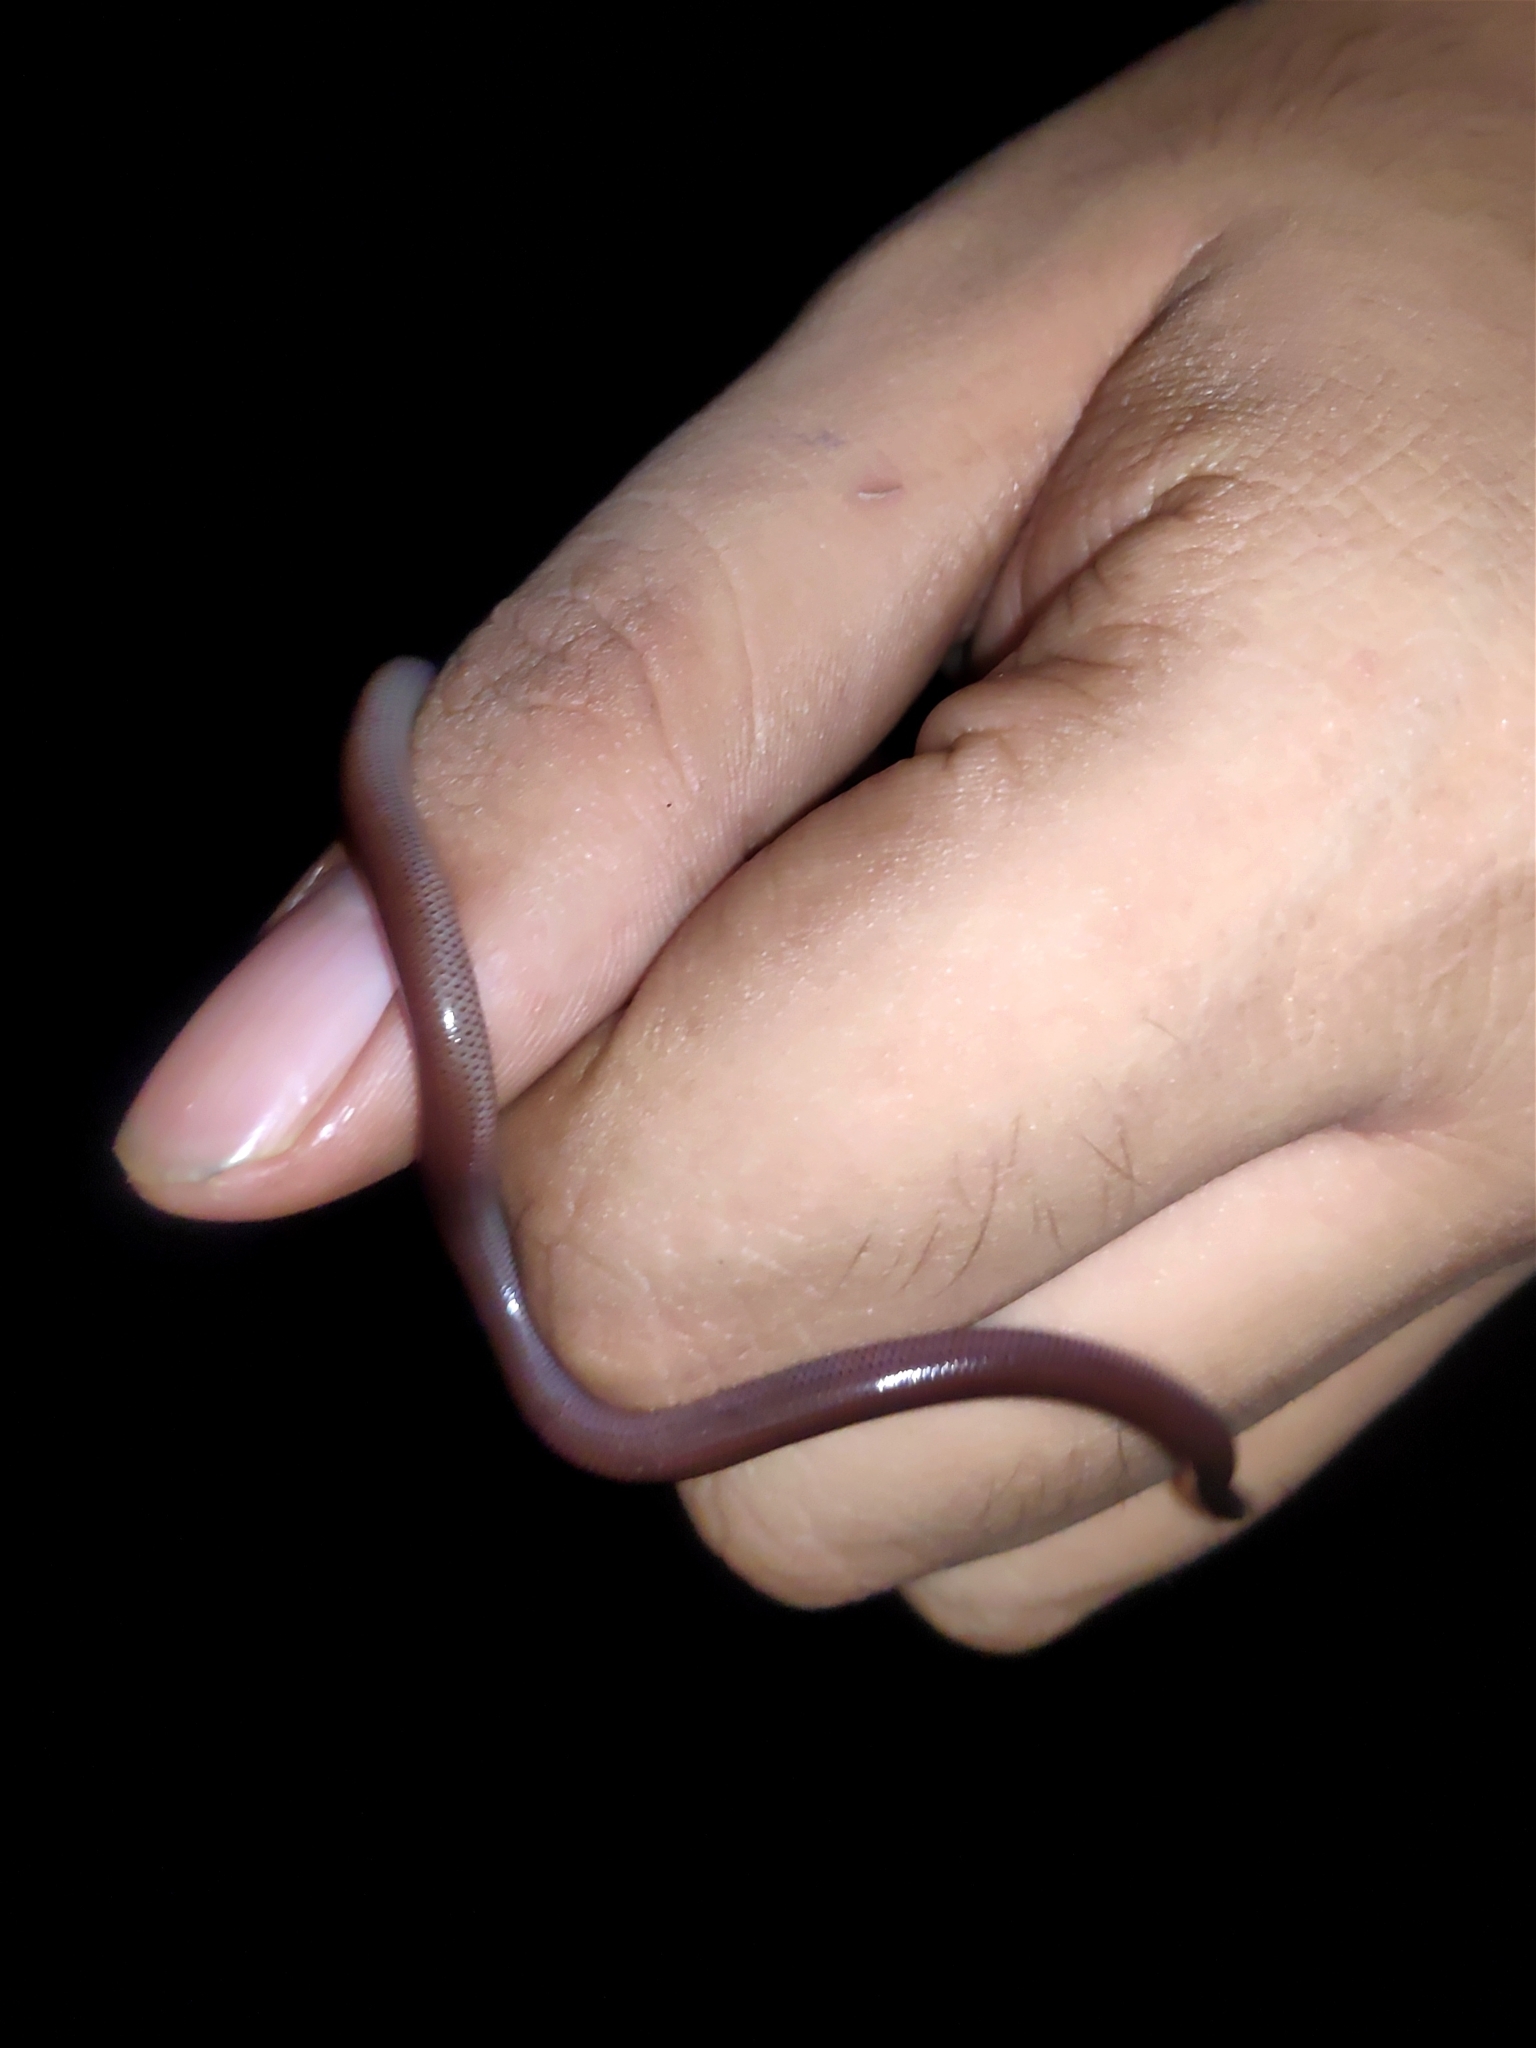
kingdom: Animalia
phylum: Chordata
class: Squamata
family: Typhlopidae
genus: Indotyphlops
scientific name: Indotyphlops braminus
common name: Brahminy blindsnake
